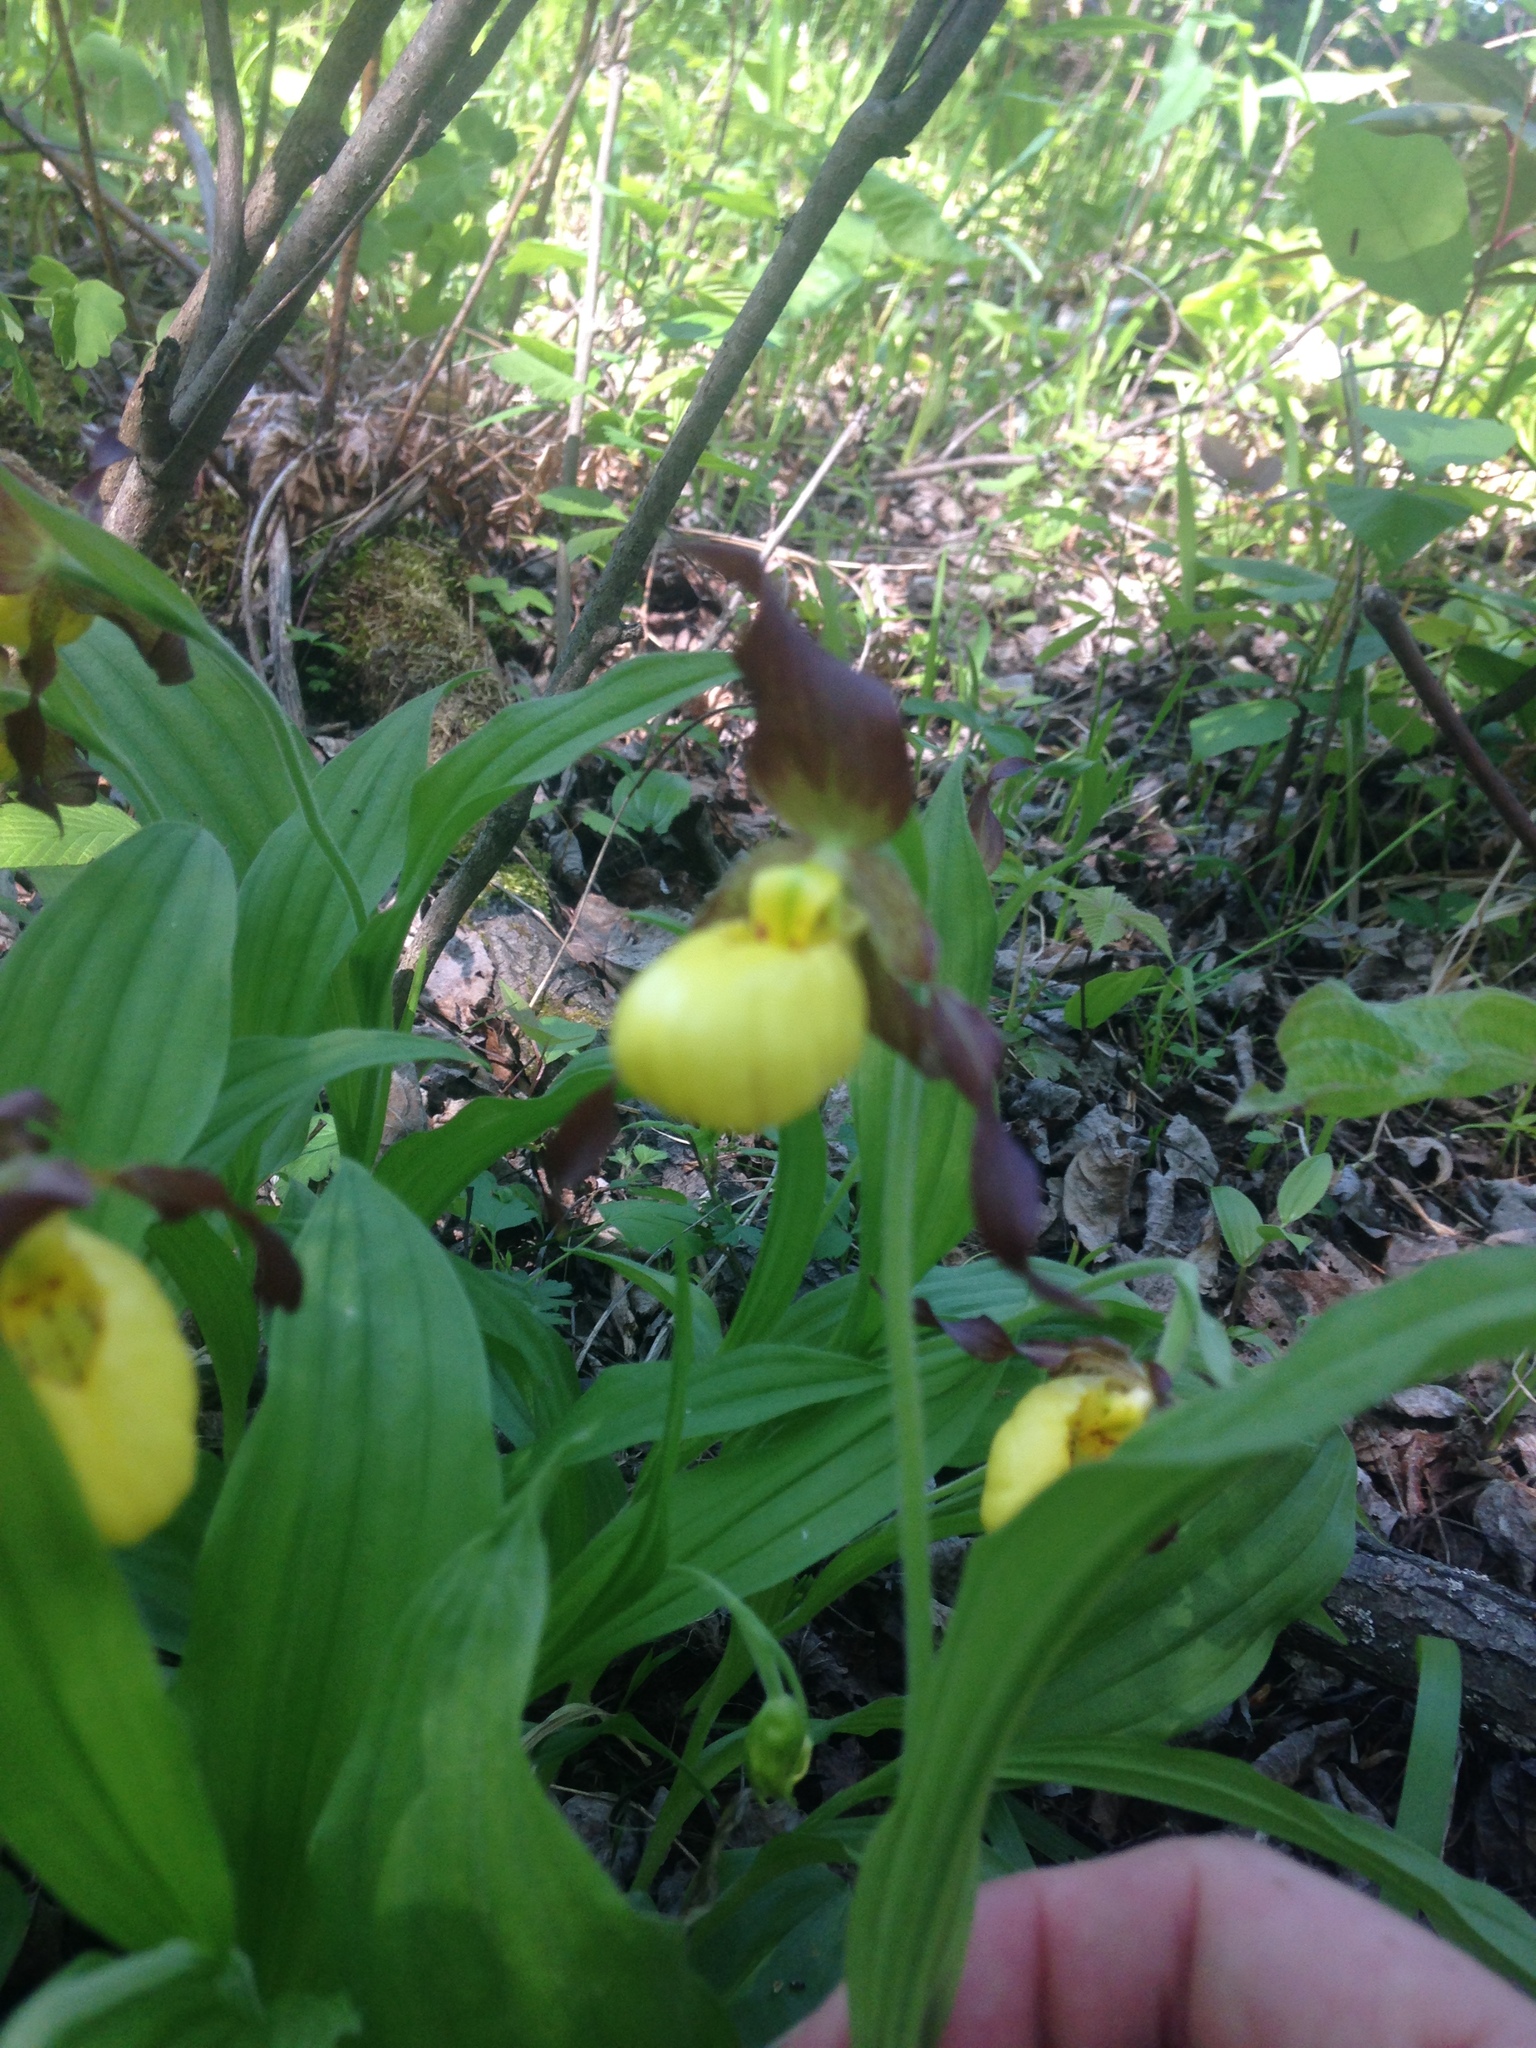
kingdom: Plantae
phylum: Tracheophyta
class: Liliopsida
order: Asparagales
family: Orchidaceae
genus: Cypripedium
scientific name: Cypripedium parviflorum
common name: American yellow lady's-slipper
